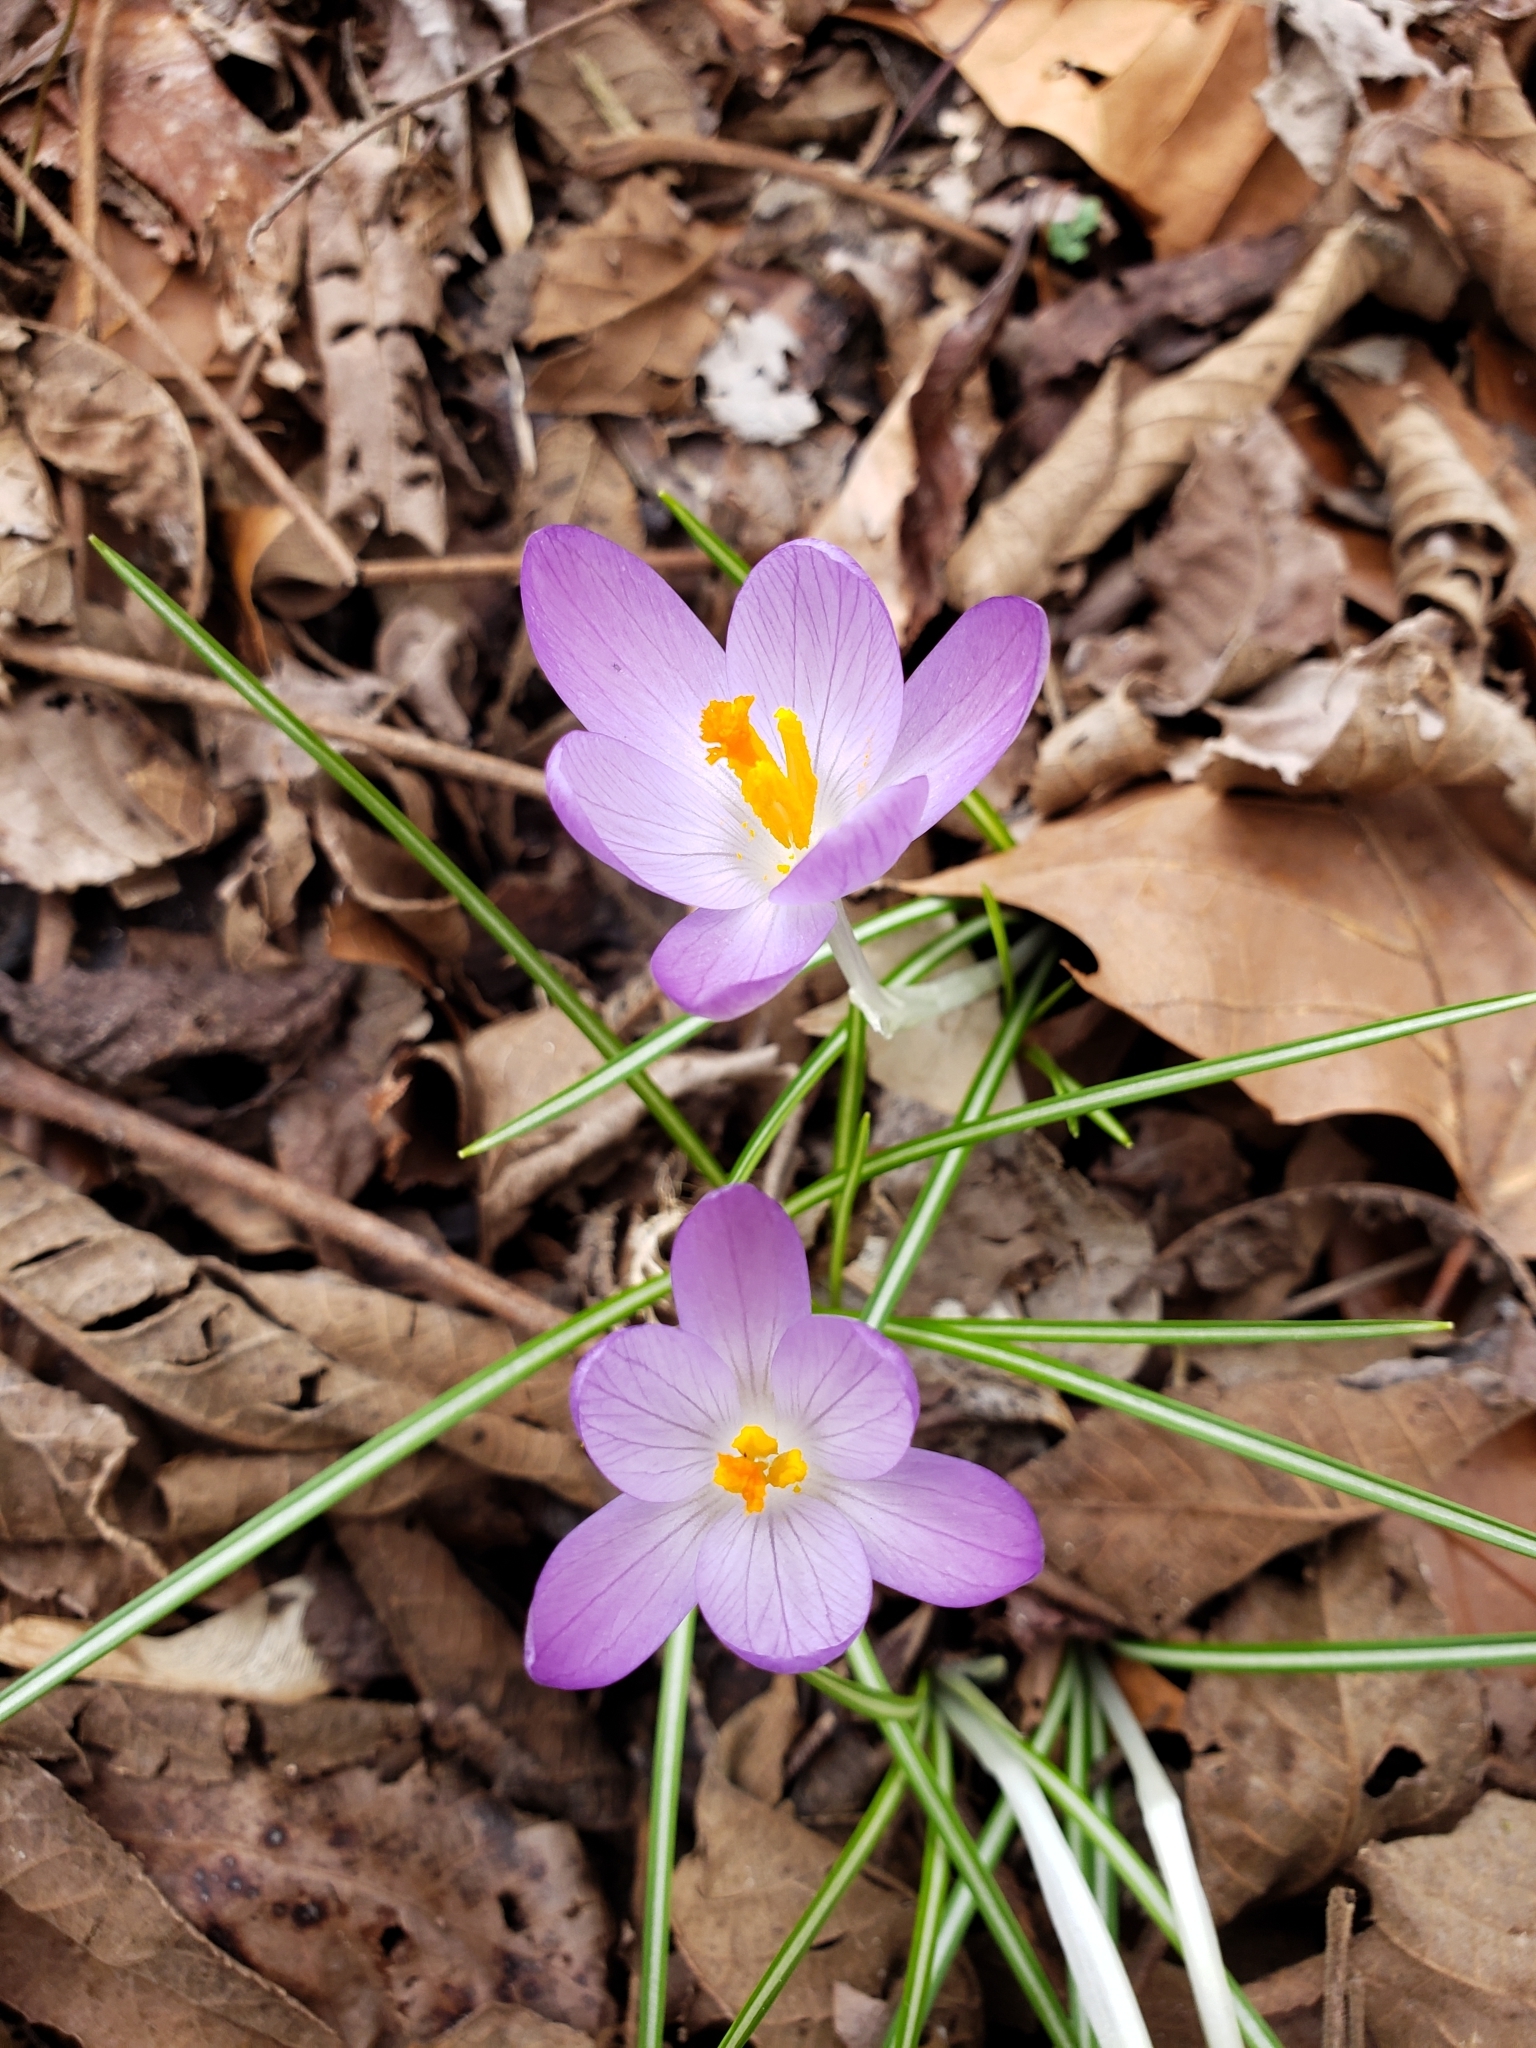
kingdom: Plantae
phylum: Tracheophyta
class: Liliopsida
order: Asparagales
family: Iridaceae
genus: Crocus
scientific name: Crocus tommasinianus
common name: Early crocus
